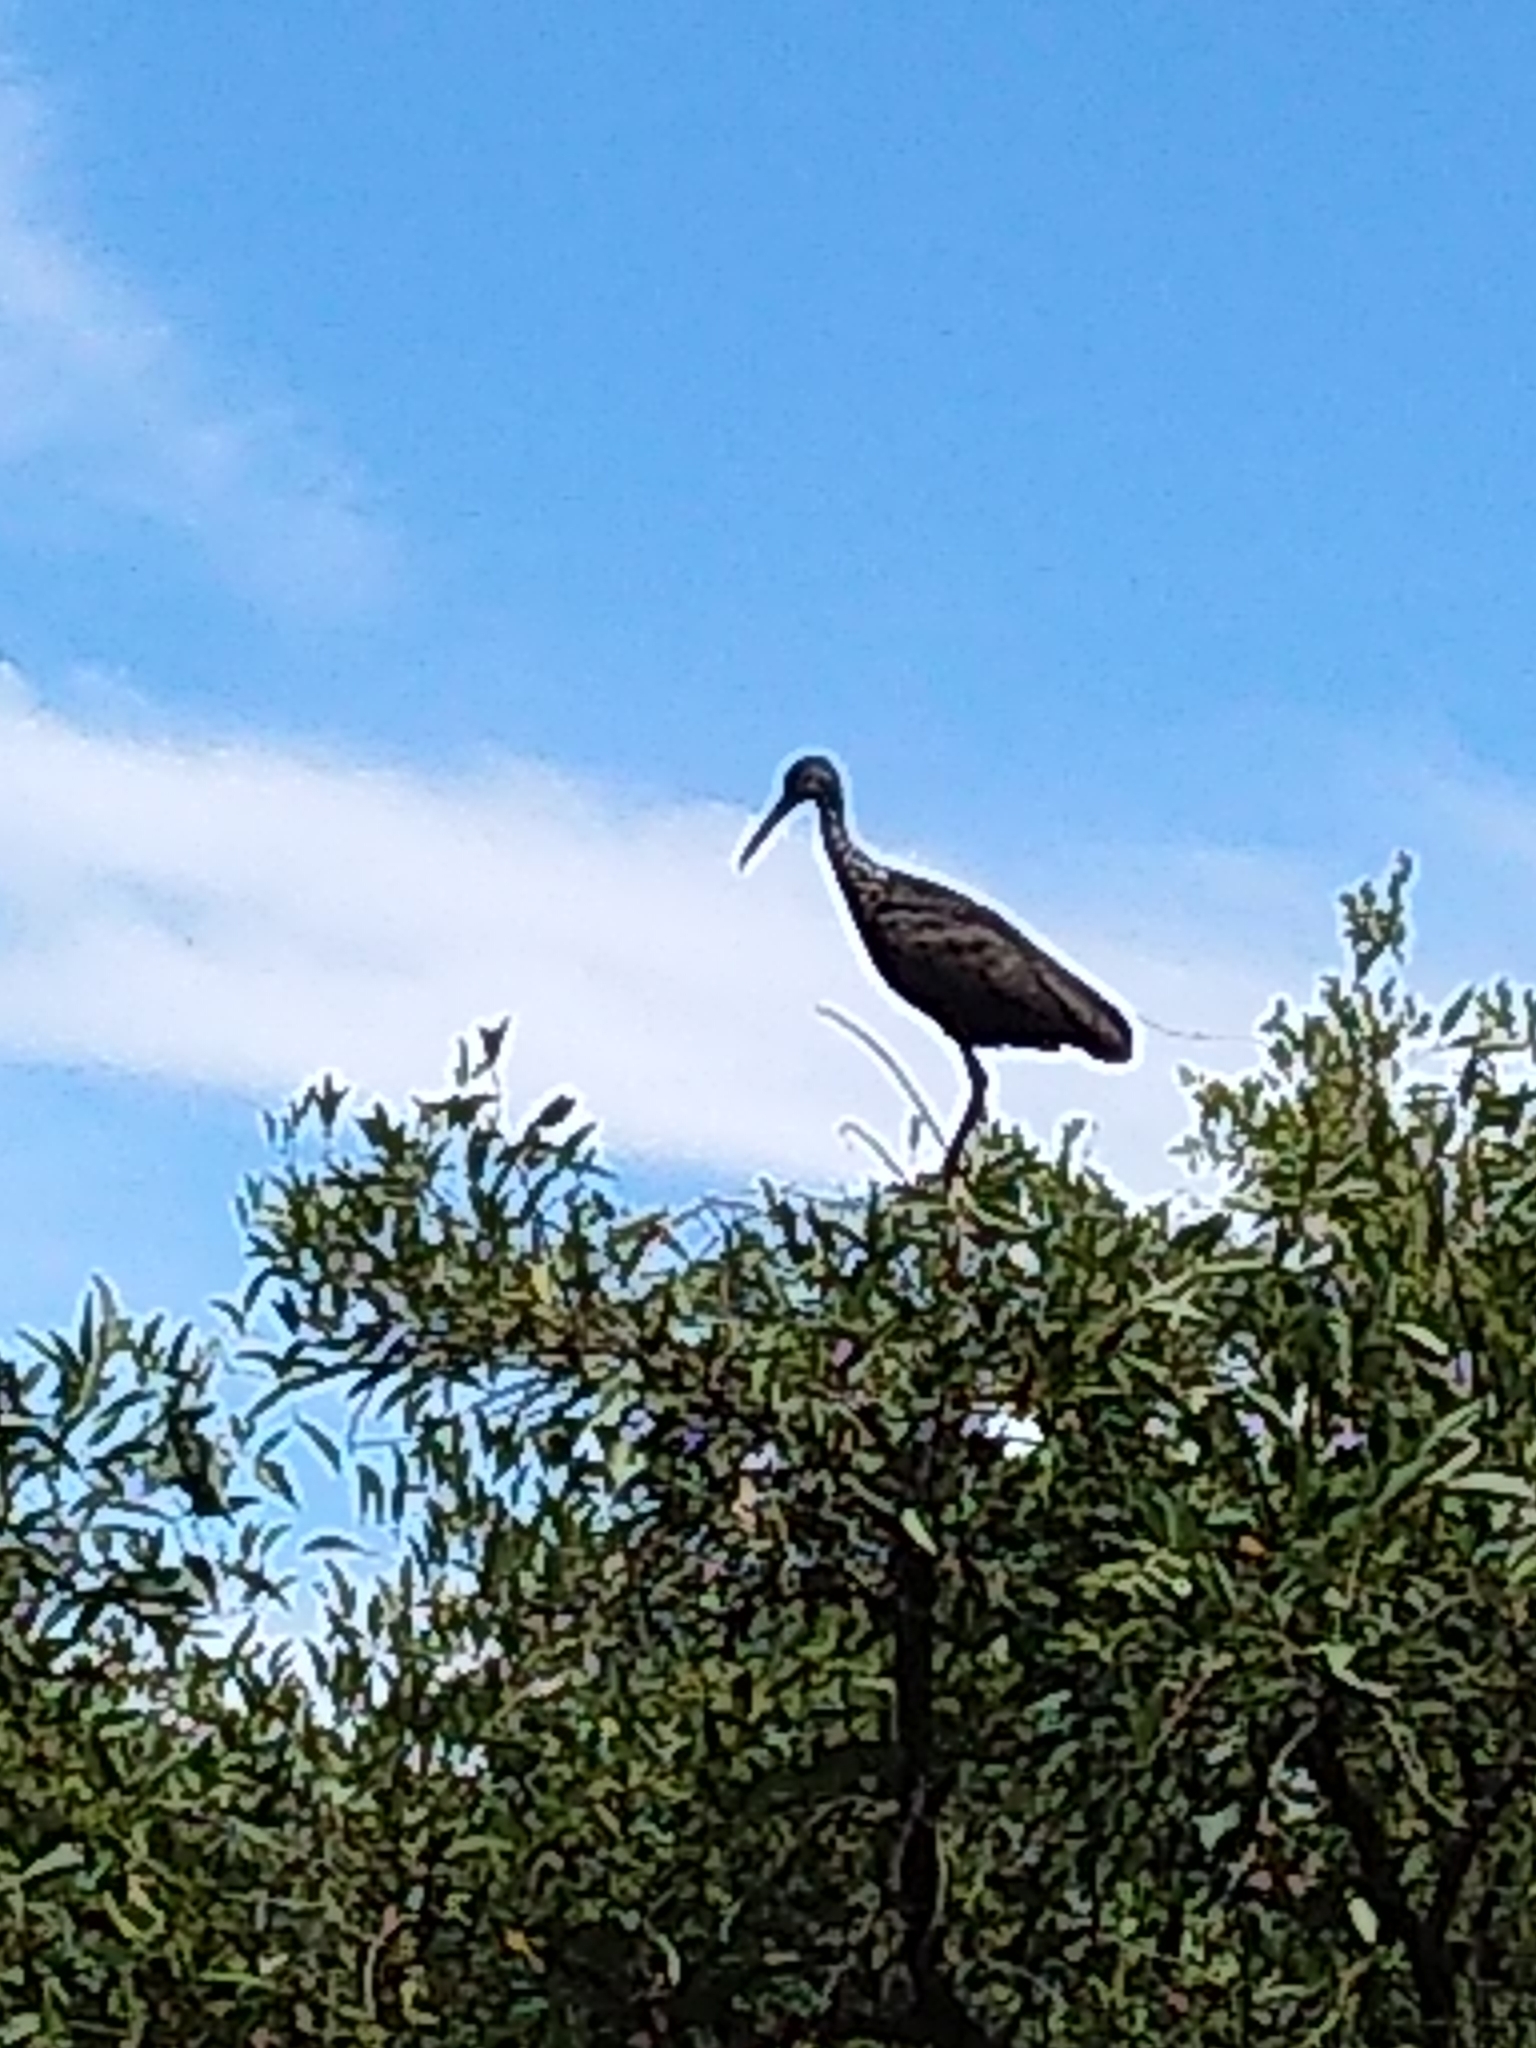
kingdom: Animalia
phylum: Chordata
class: Aves
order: Gruiformes
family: Aramidae
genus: Aramus
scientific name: Aramus guarauna
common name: Limpkin
